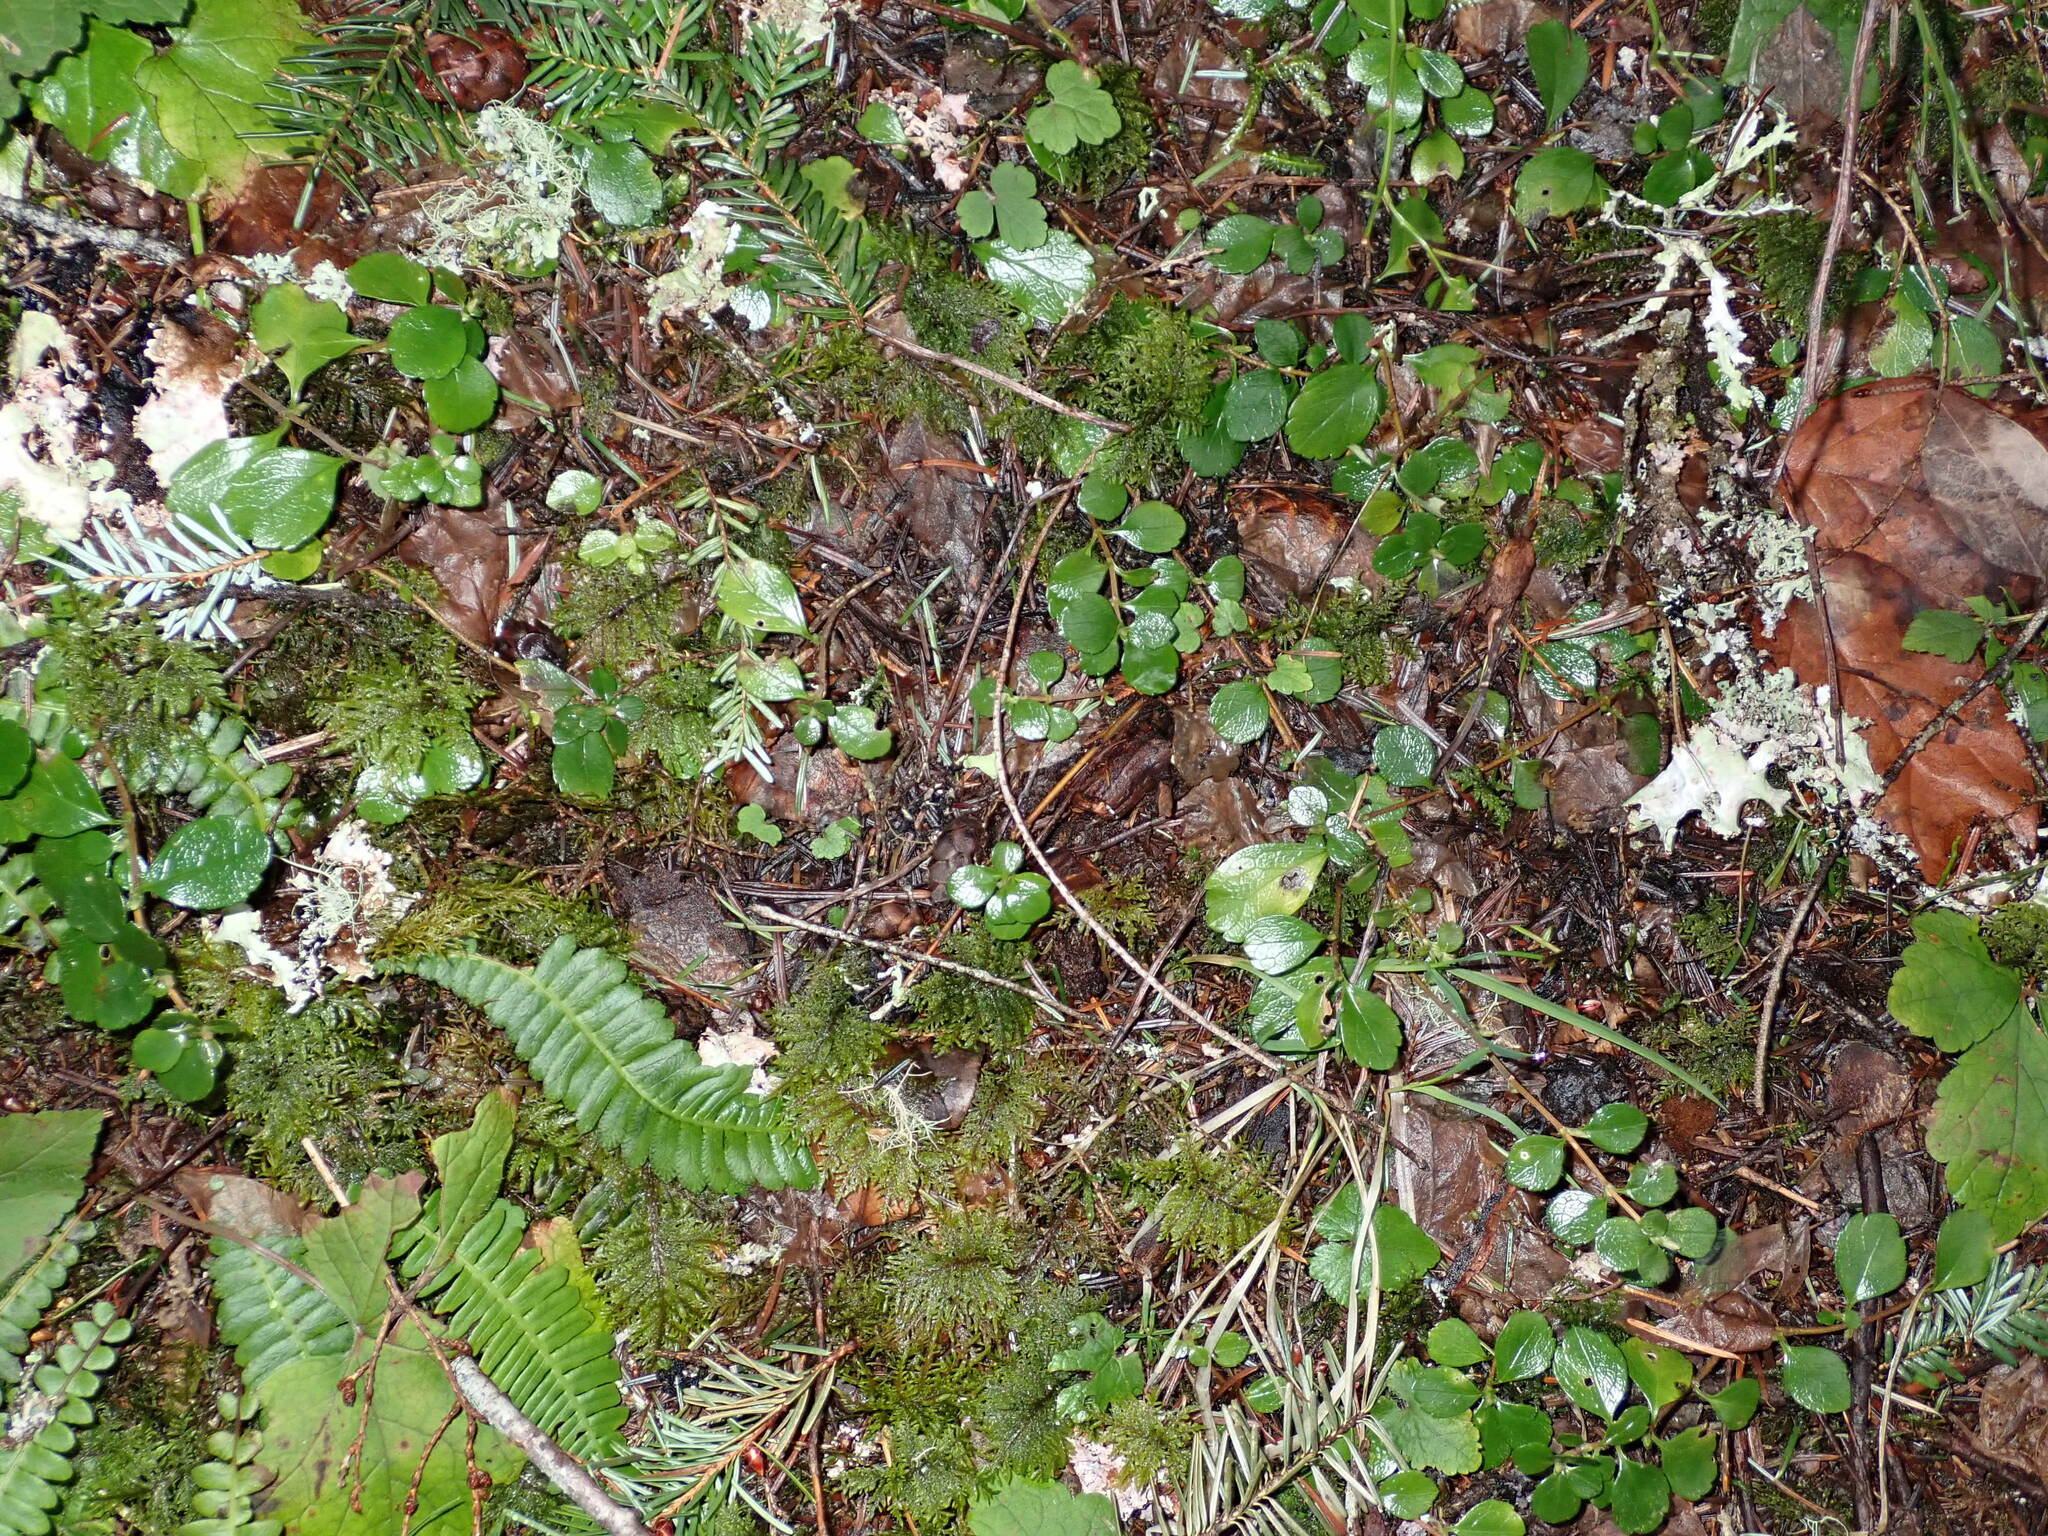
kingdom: Plantae
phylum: Tracheophyta
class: Magnoliopsida
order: Dipsacales
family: Caprifoliaceae
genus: Linnaea
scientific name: Linnaea borealis
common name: Twinflower
